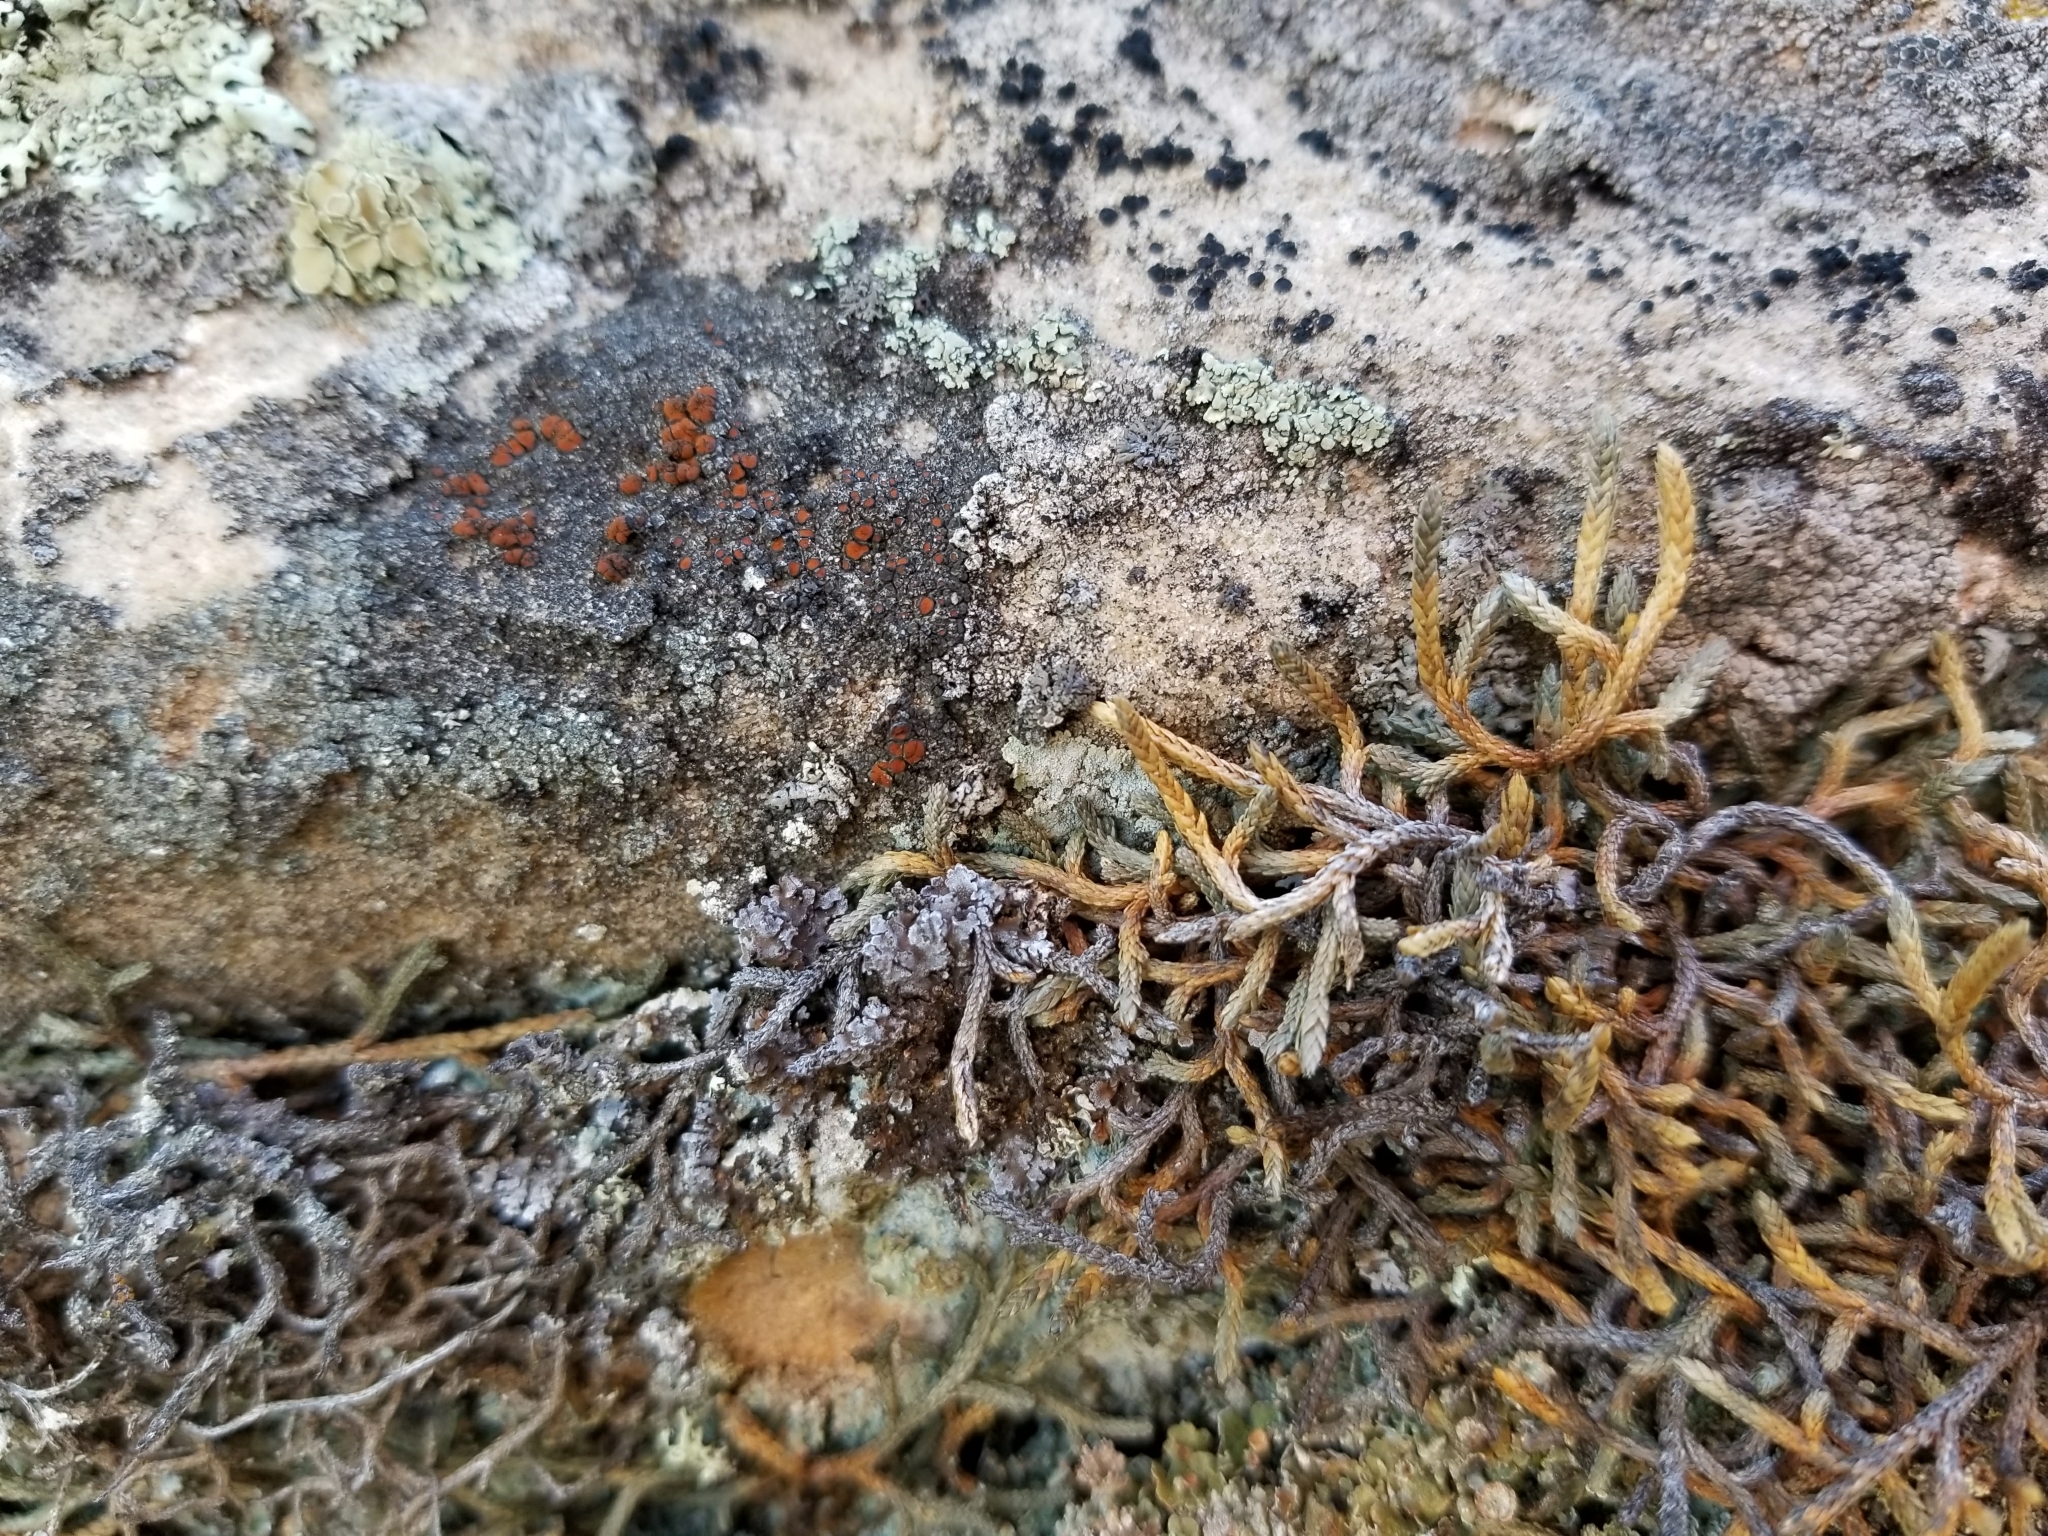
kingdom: Fungi
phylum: Ascomycota
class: Lecanoromycetes
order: Teloschistales
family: Teloschistaceae
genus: Caloplaca
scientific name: Caloplaca pelodella
